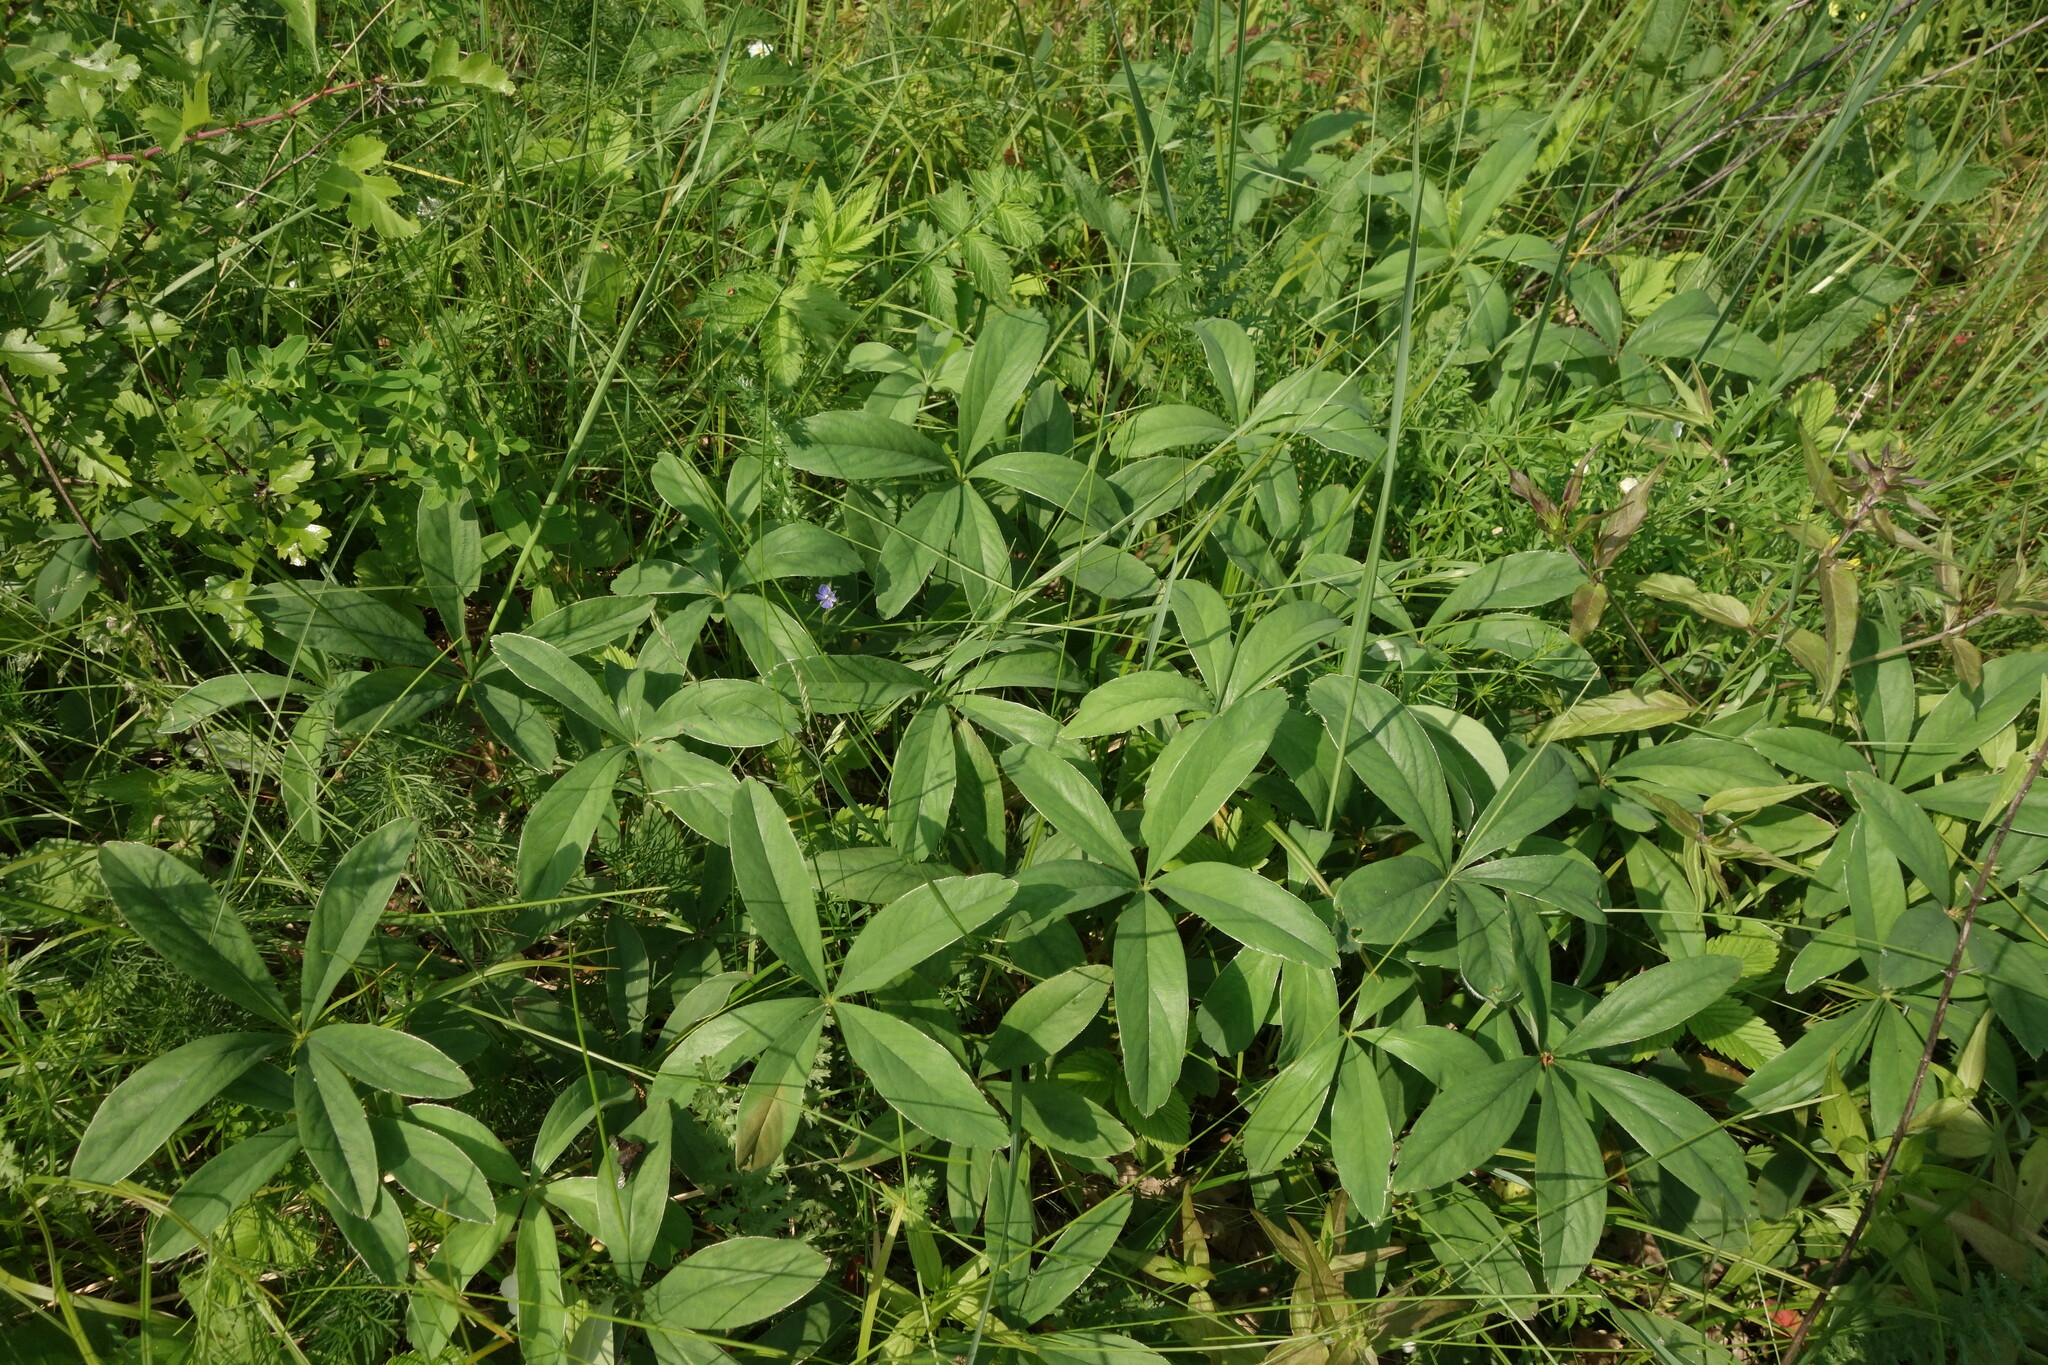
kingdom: Plantae
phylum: Tracheophyta
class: Magnoliopsida
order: Rosales
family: Rosaceae
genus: Potentilla
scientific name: Potentilla alba
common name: White cinquefoil
